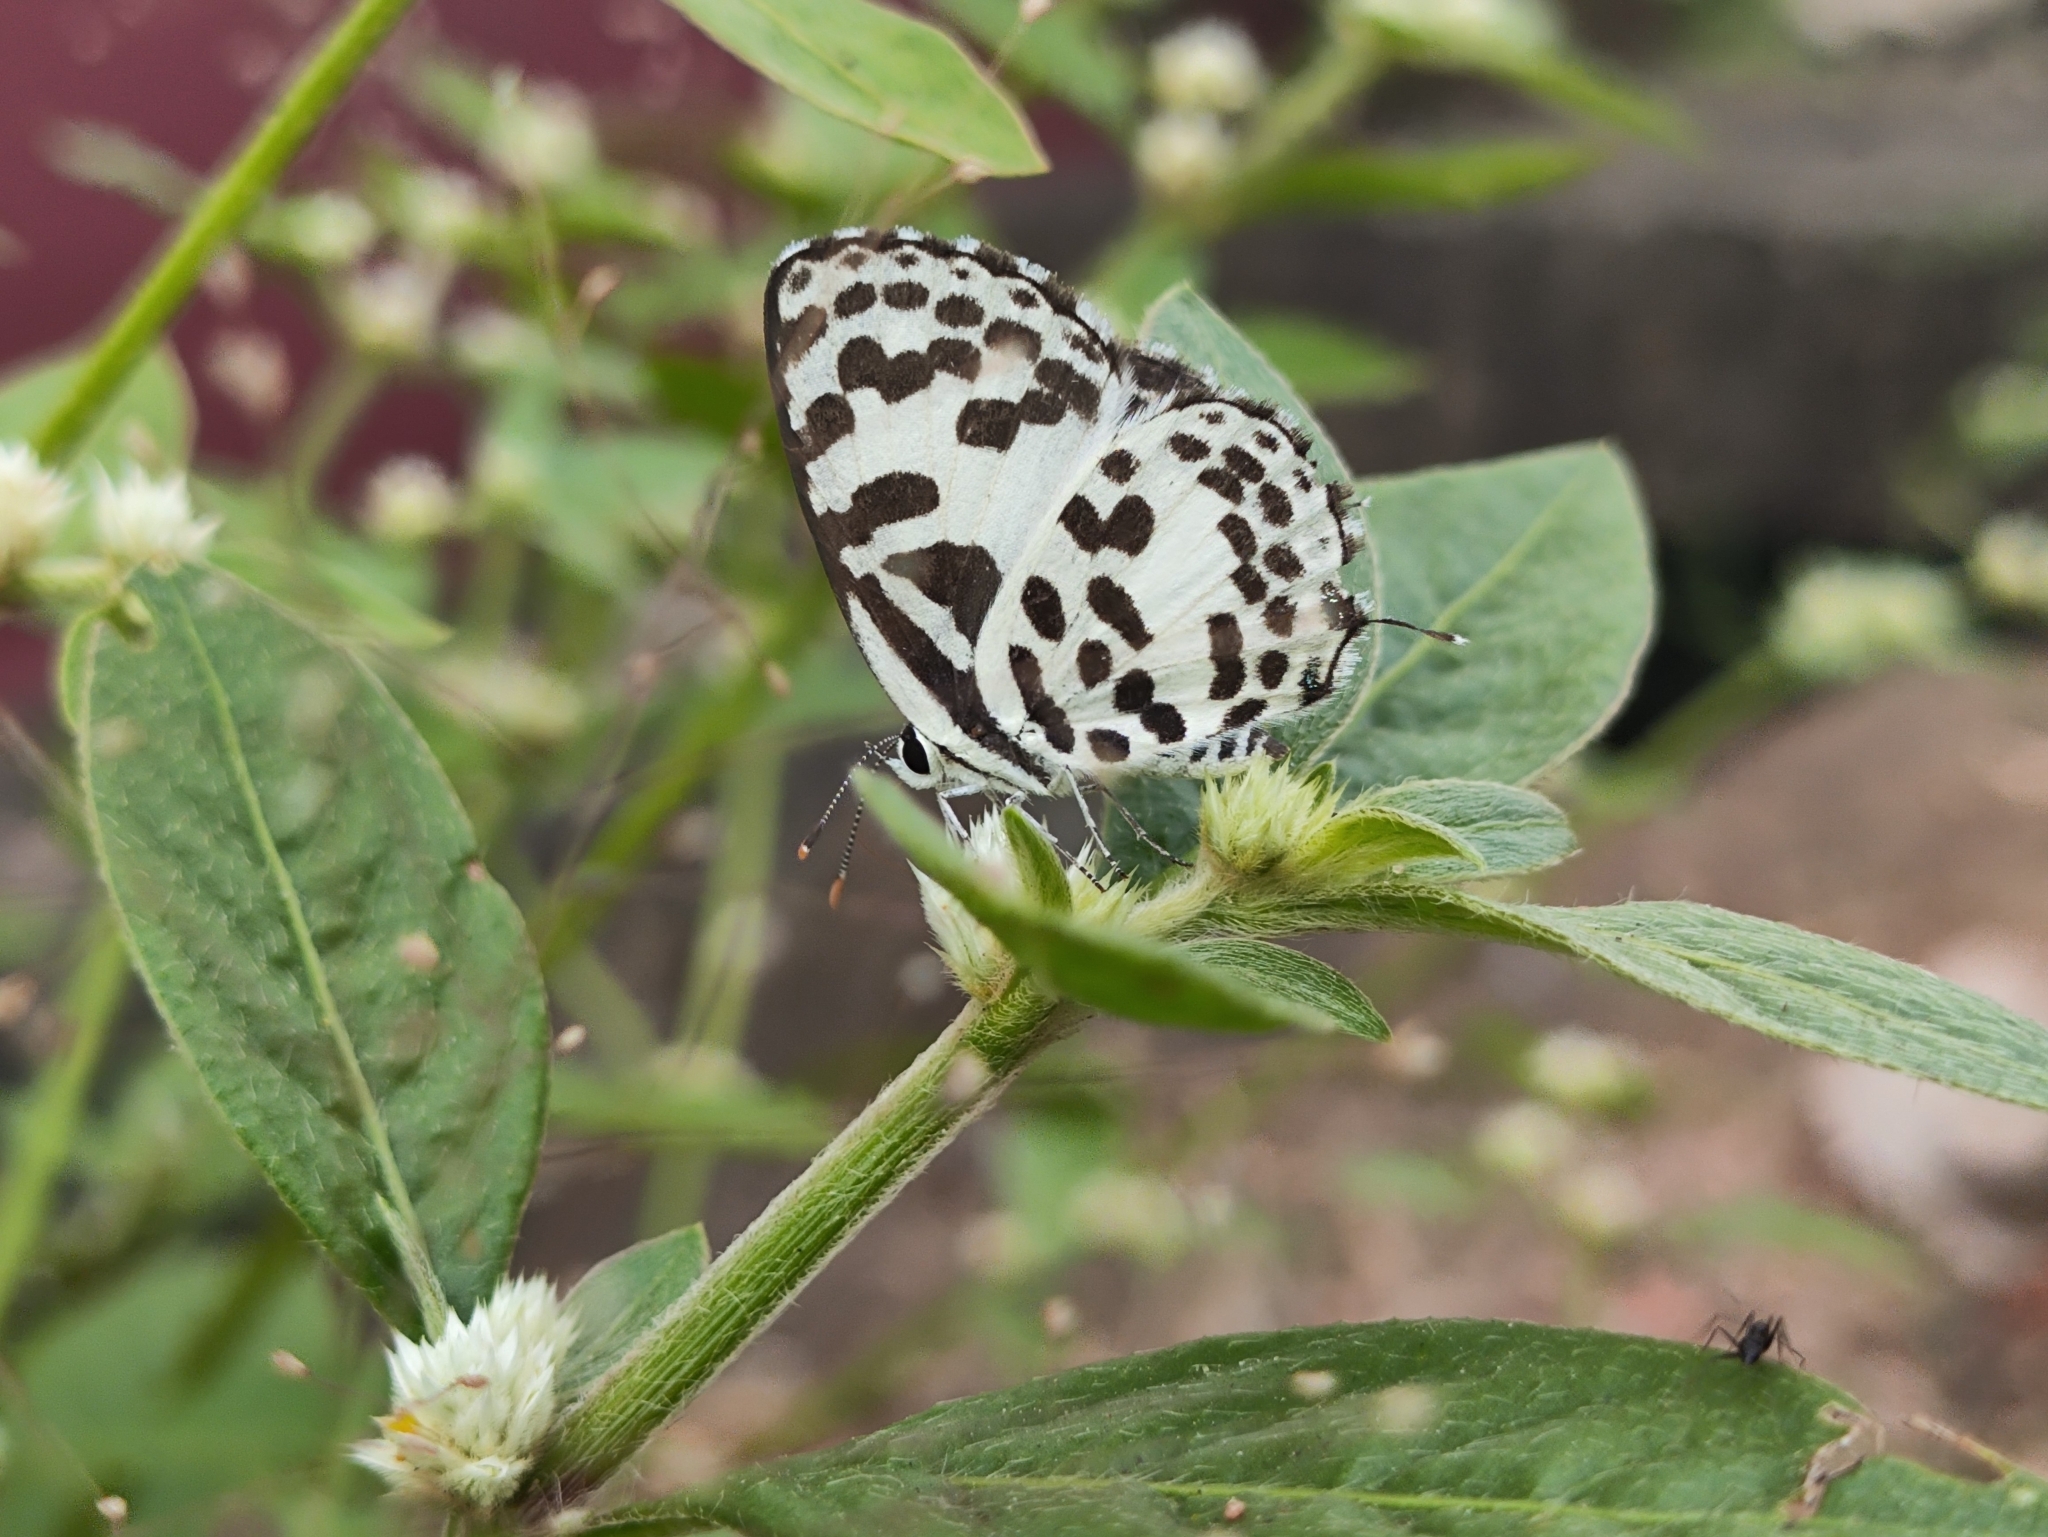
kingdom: Animalia
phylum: Arthropoda
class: Insecta
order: Lepidoptera
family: Lycaenidae
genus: Castalius
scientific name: Castalius rosimon
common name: Common pierrot
